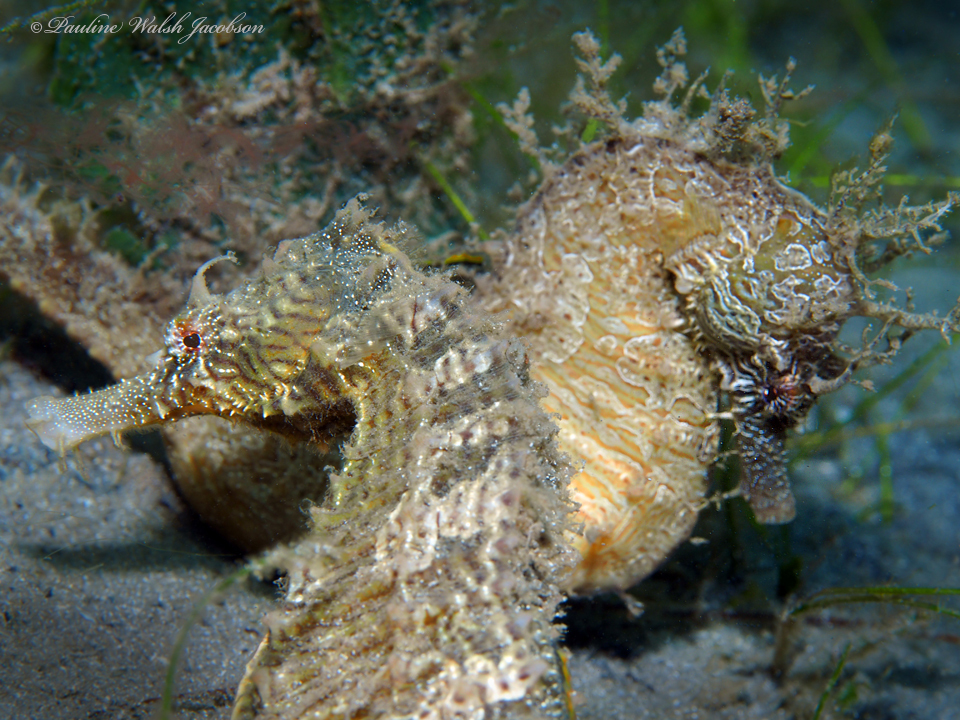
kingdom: Animalia
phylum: Chordata
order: Syngnathiformes
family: Syngnathidae
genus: Hippocampus
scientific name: Hippocampus erectus
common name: Lined seahorse
